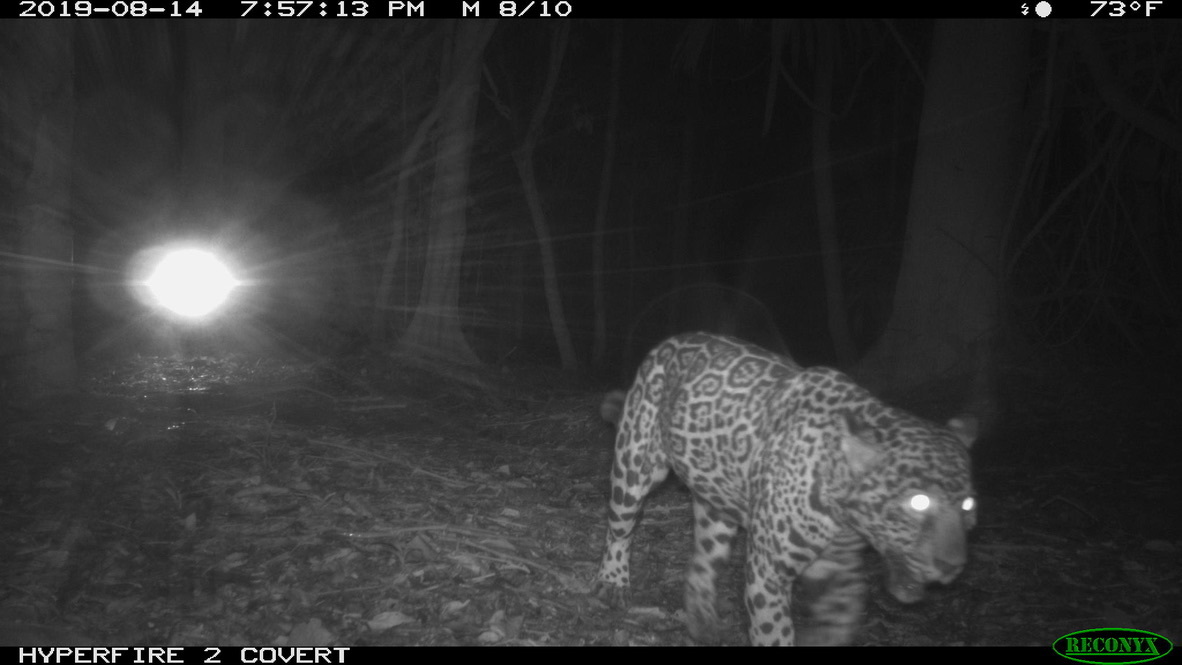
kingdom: Animalia
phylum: Chordata
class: Mammalia
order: Carnivora
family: Felidae
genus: Panthera
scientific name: Panthera onca
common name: Jaguar
